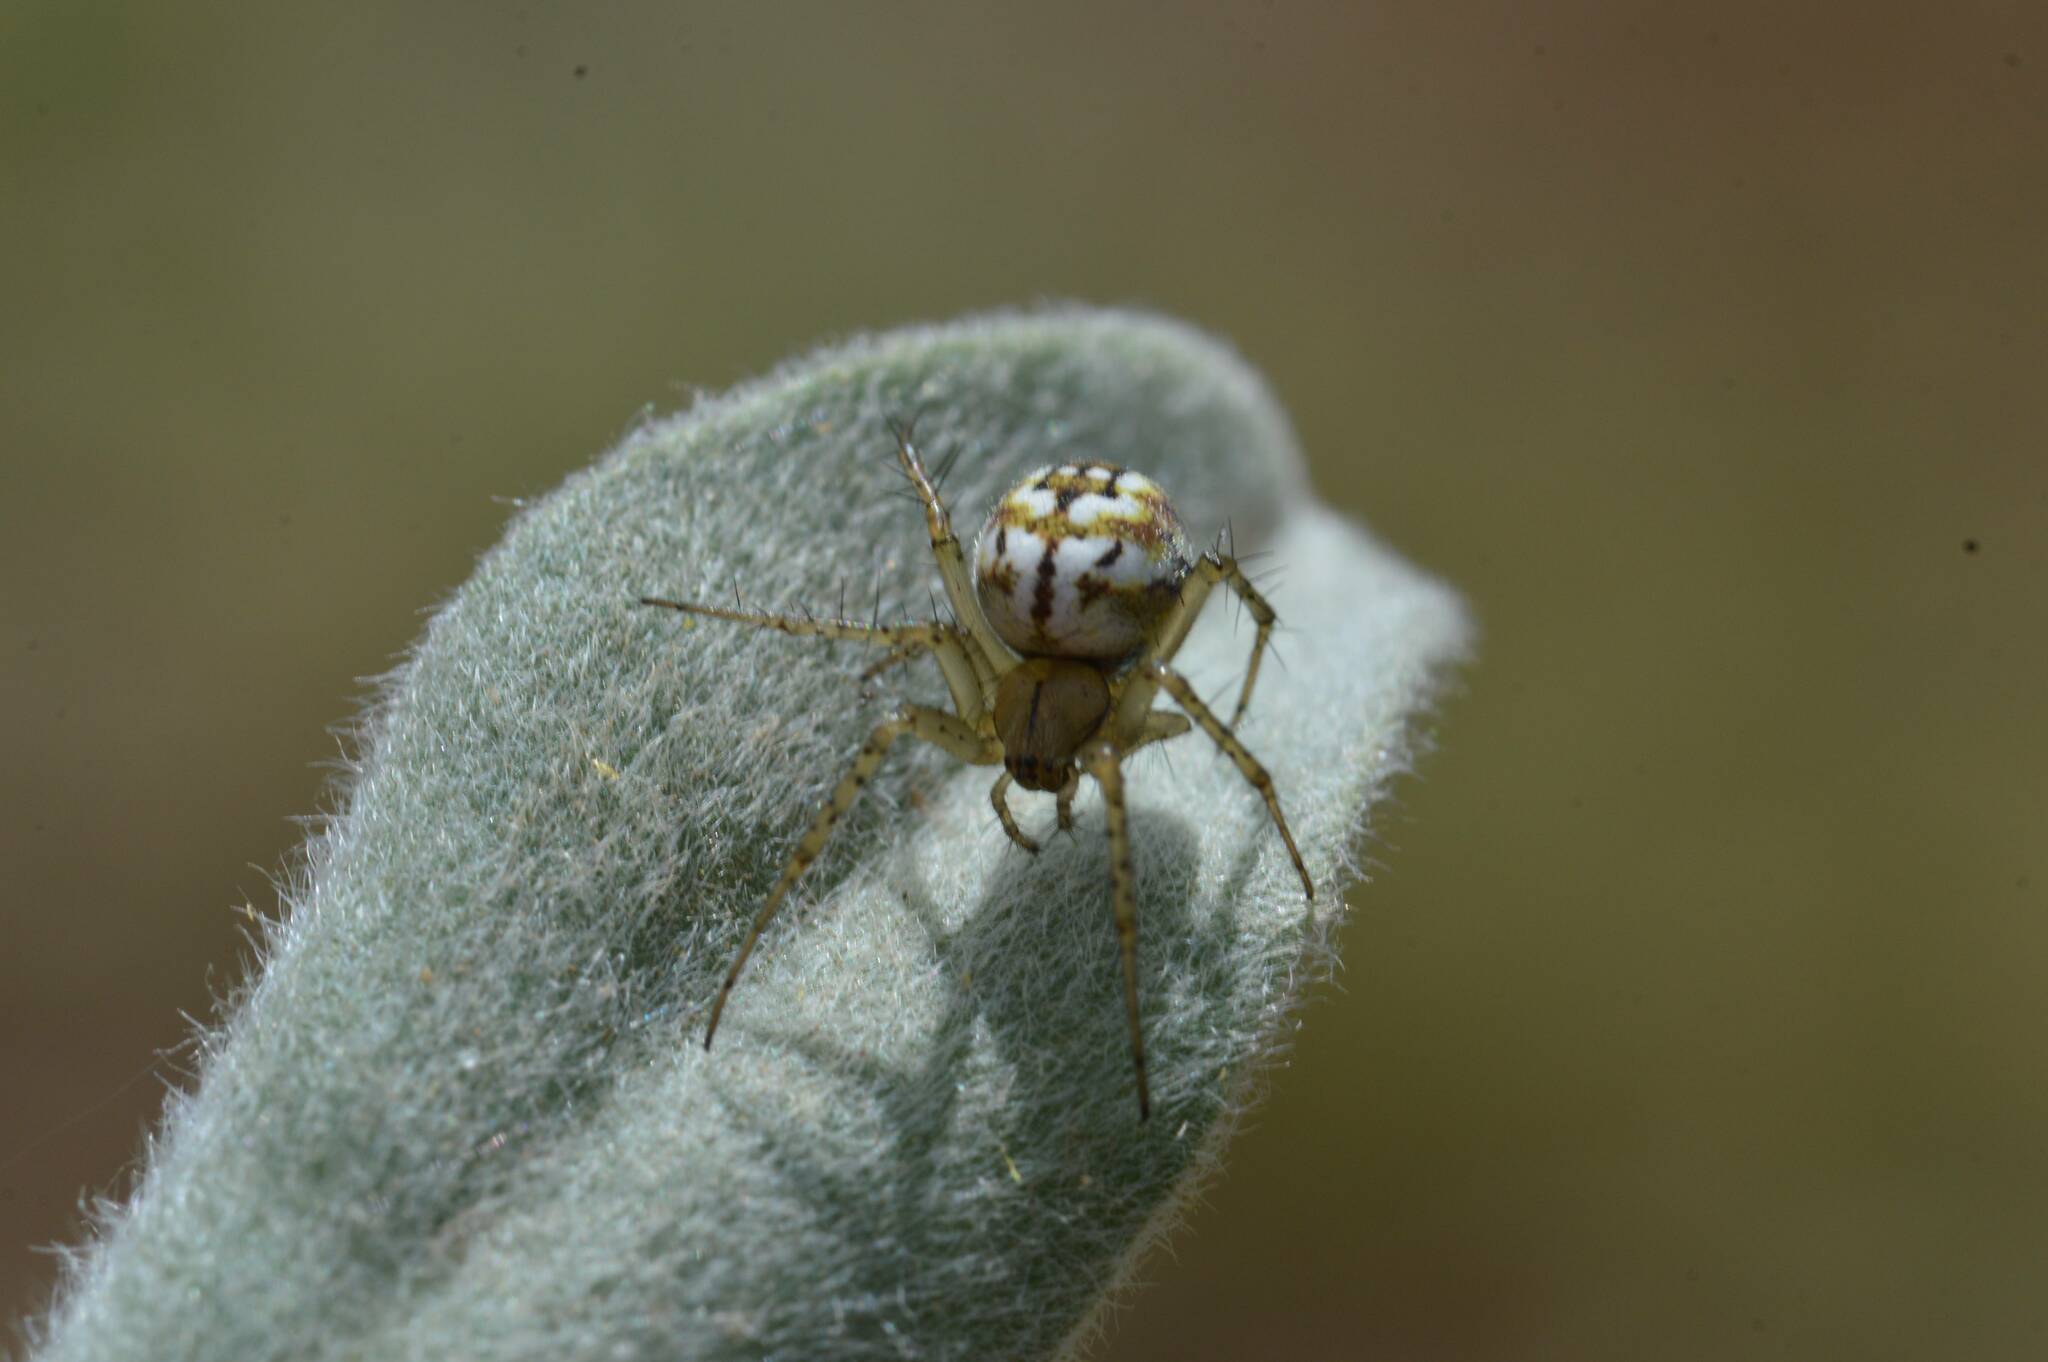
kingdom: Animalia
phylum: Arthropoda
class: Arachnida
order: Araneae
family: Araneidae
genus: Mangora
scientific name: Mangora acalypha
